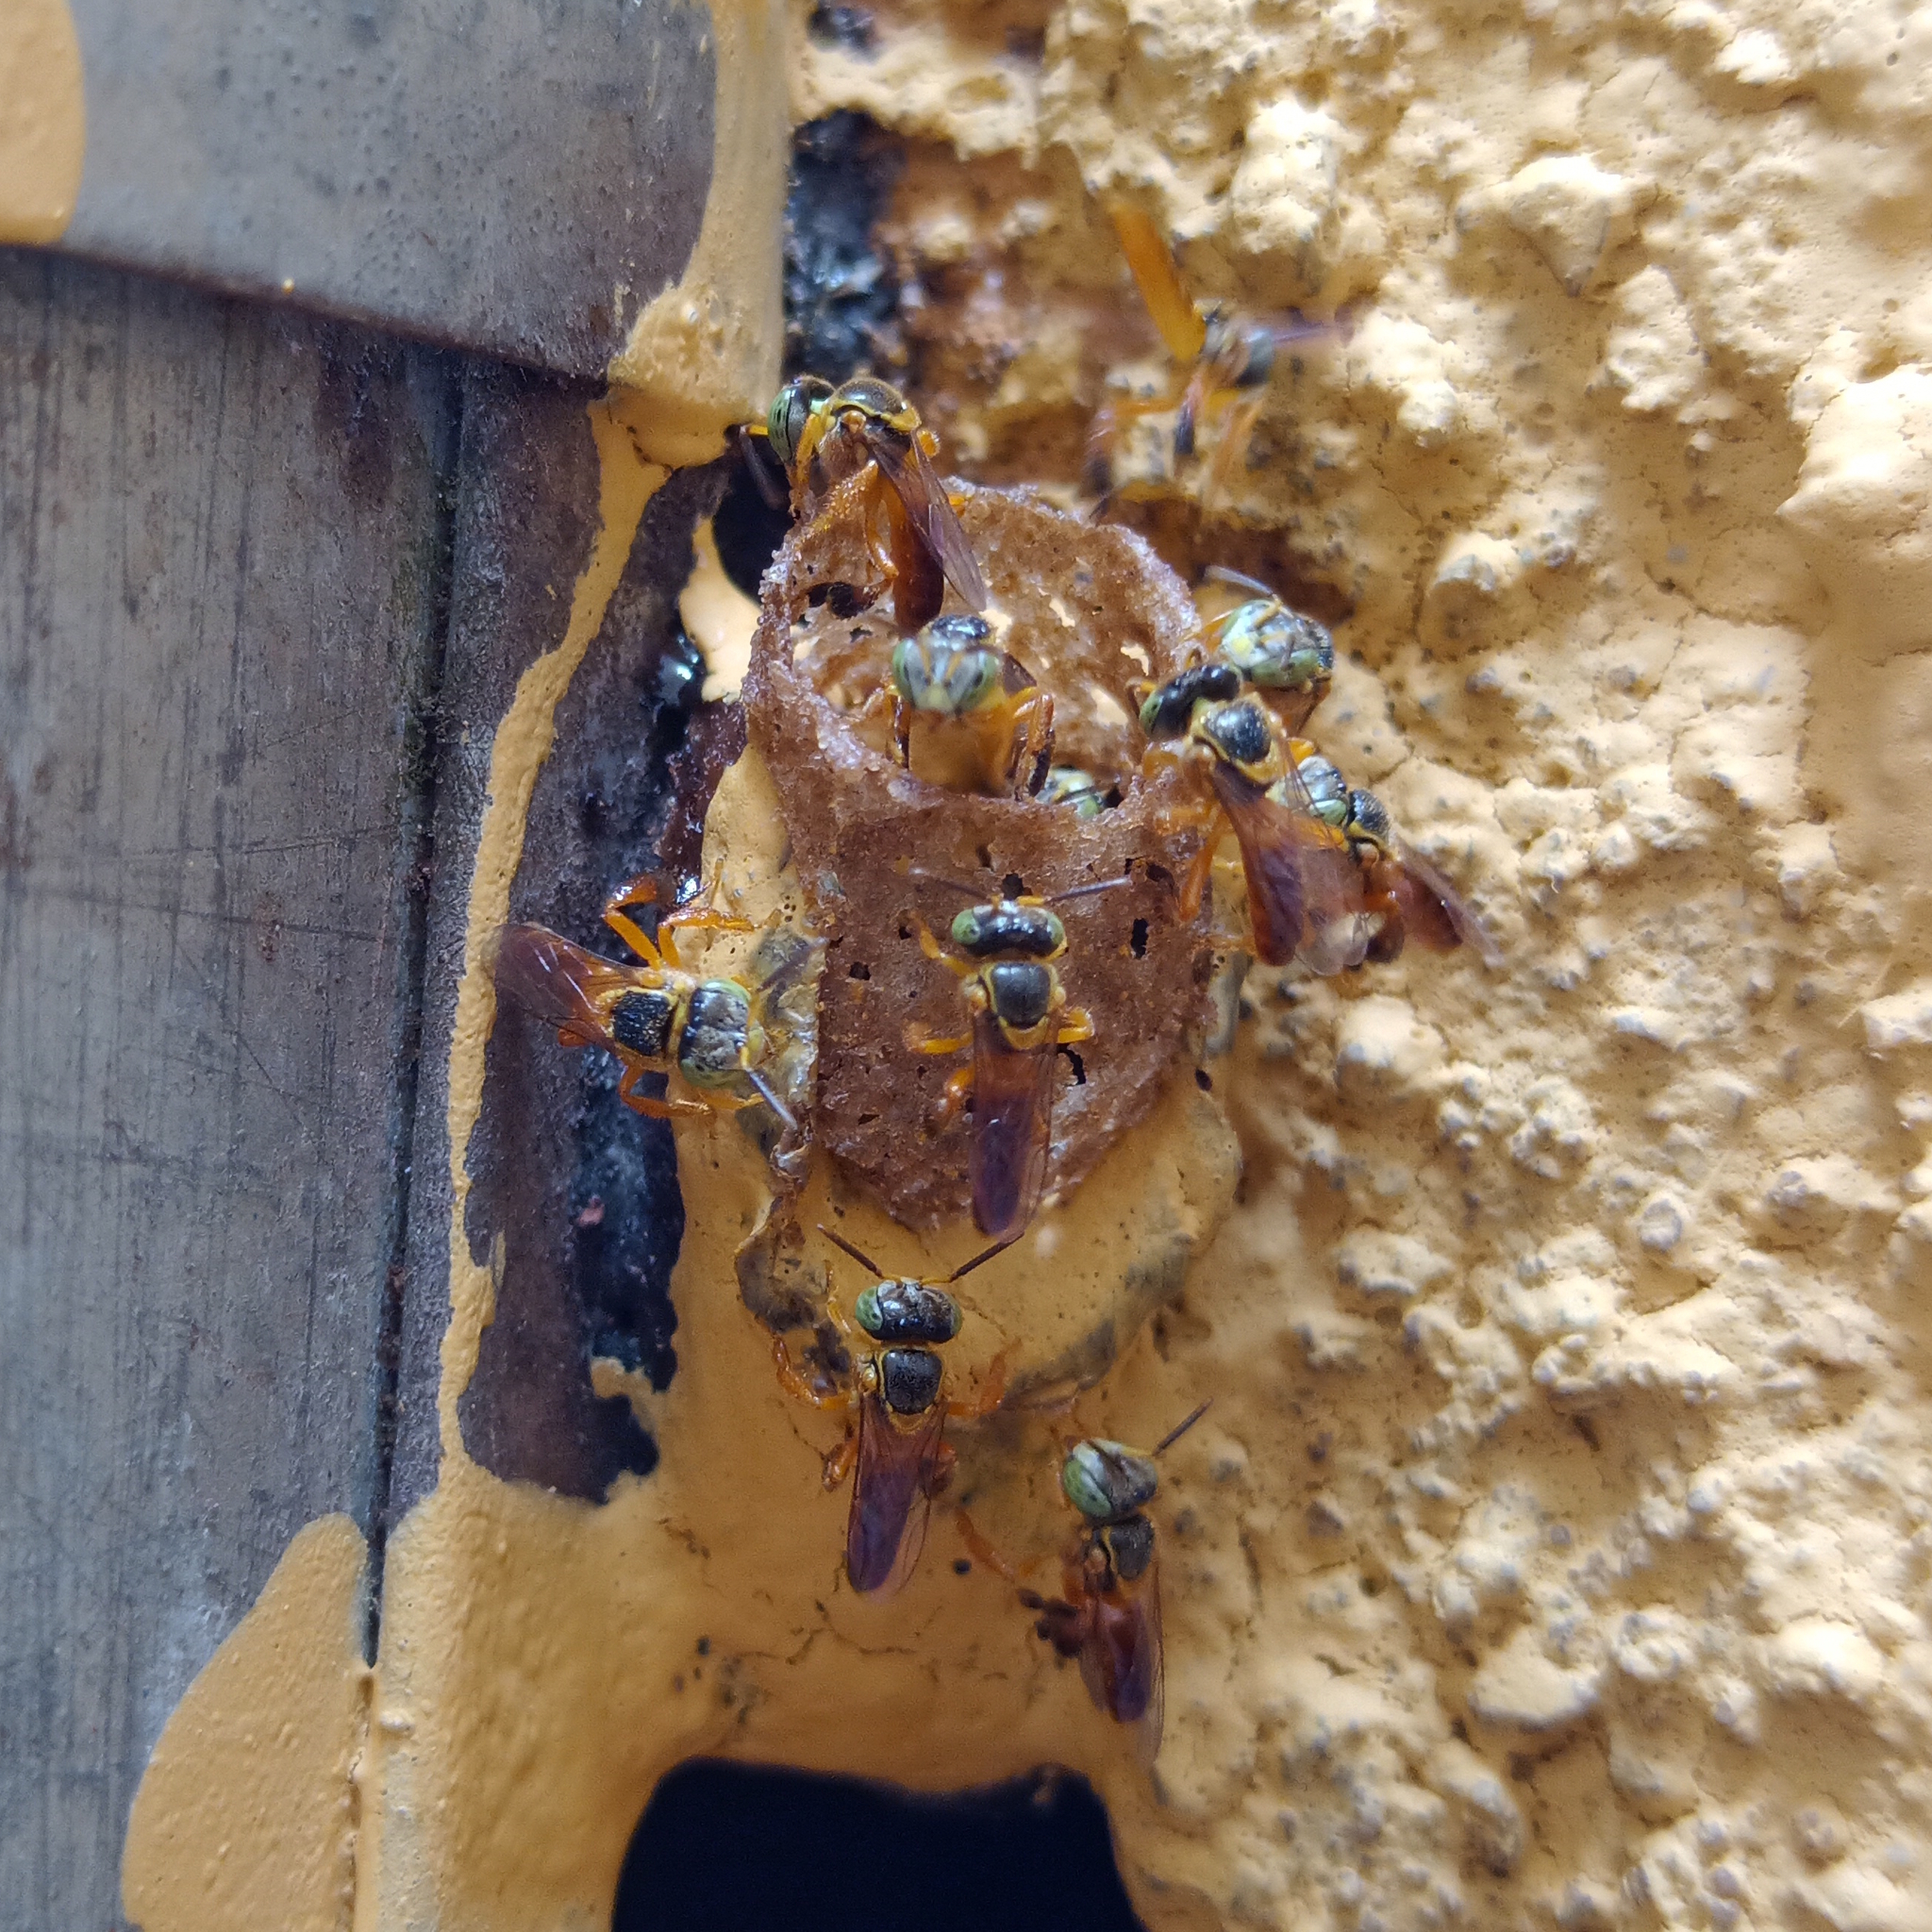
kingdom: Animalia
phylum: Arthropoda
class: Insecta
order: Hymenoptera
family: Apidae
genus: Tetragonisca
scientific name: Tetragonisca fiebrigi
